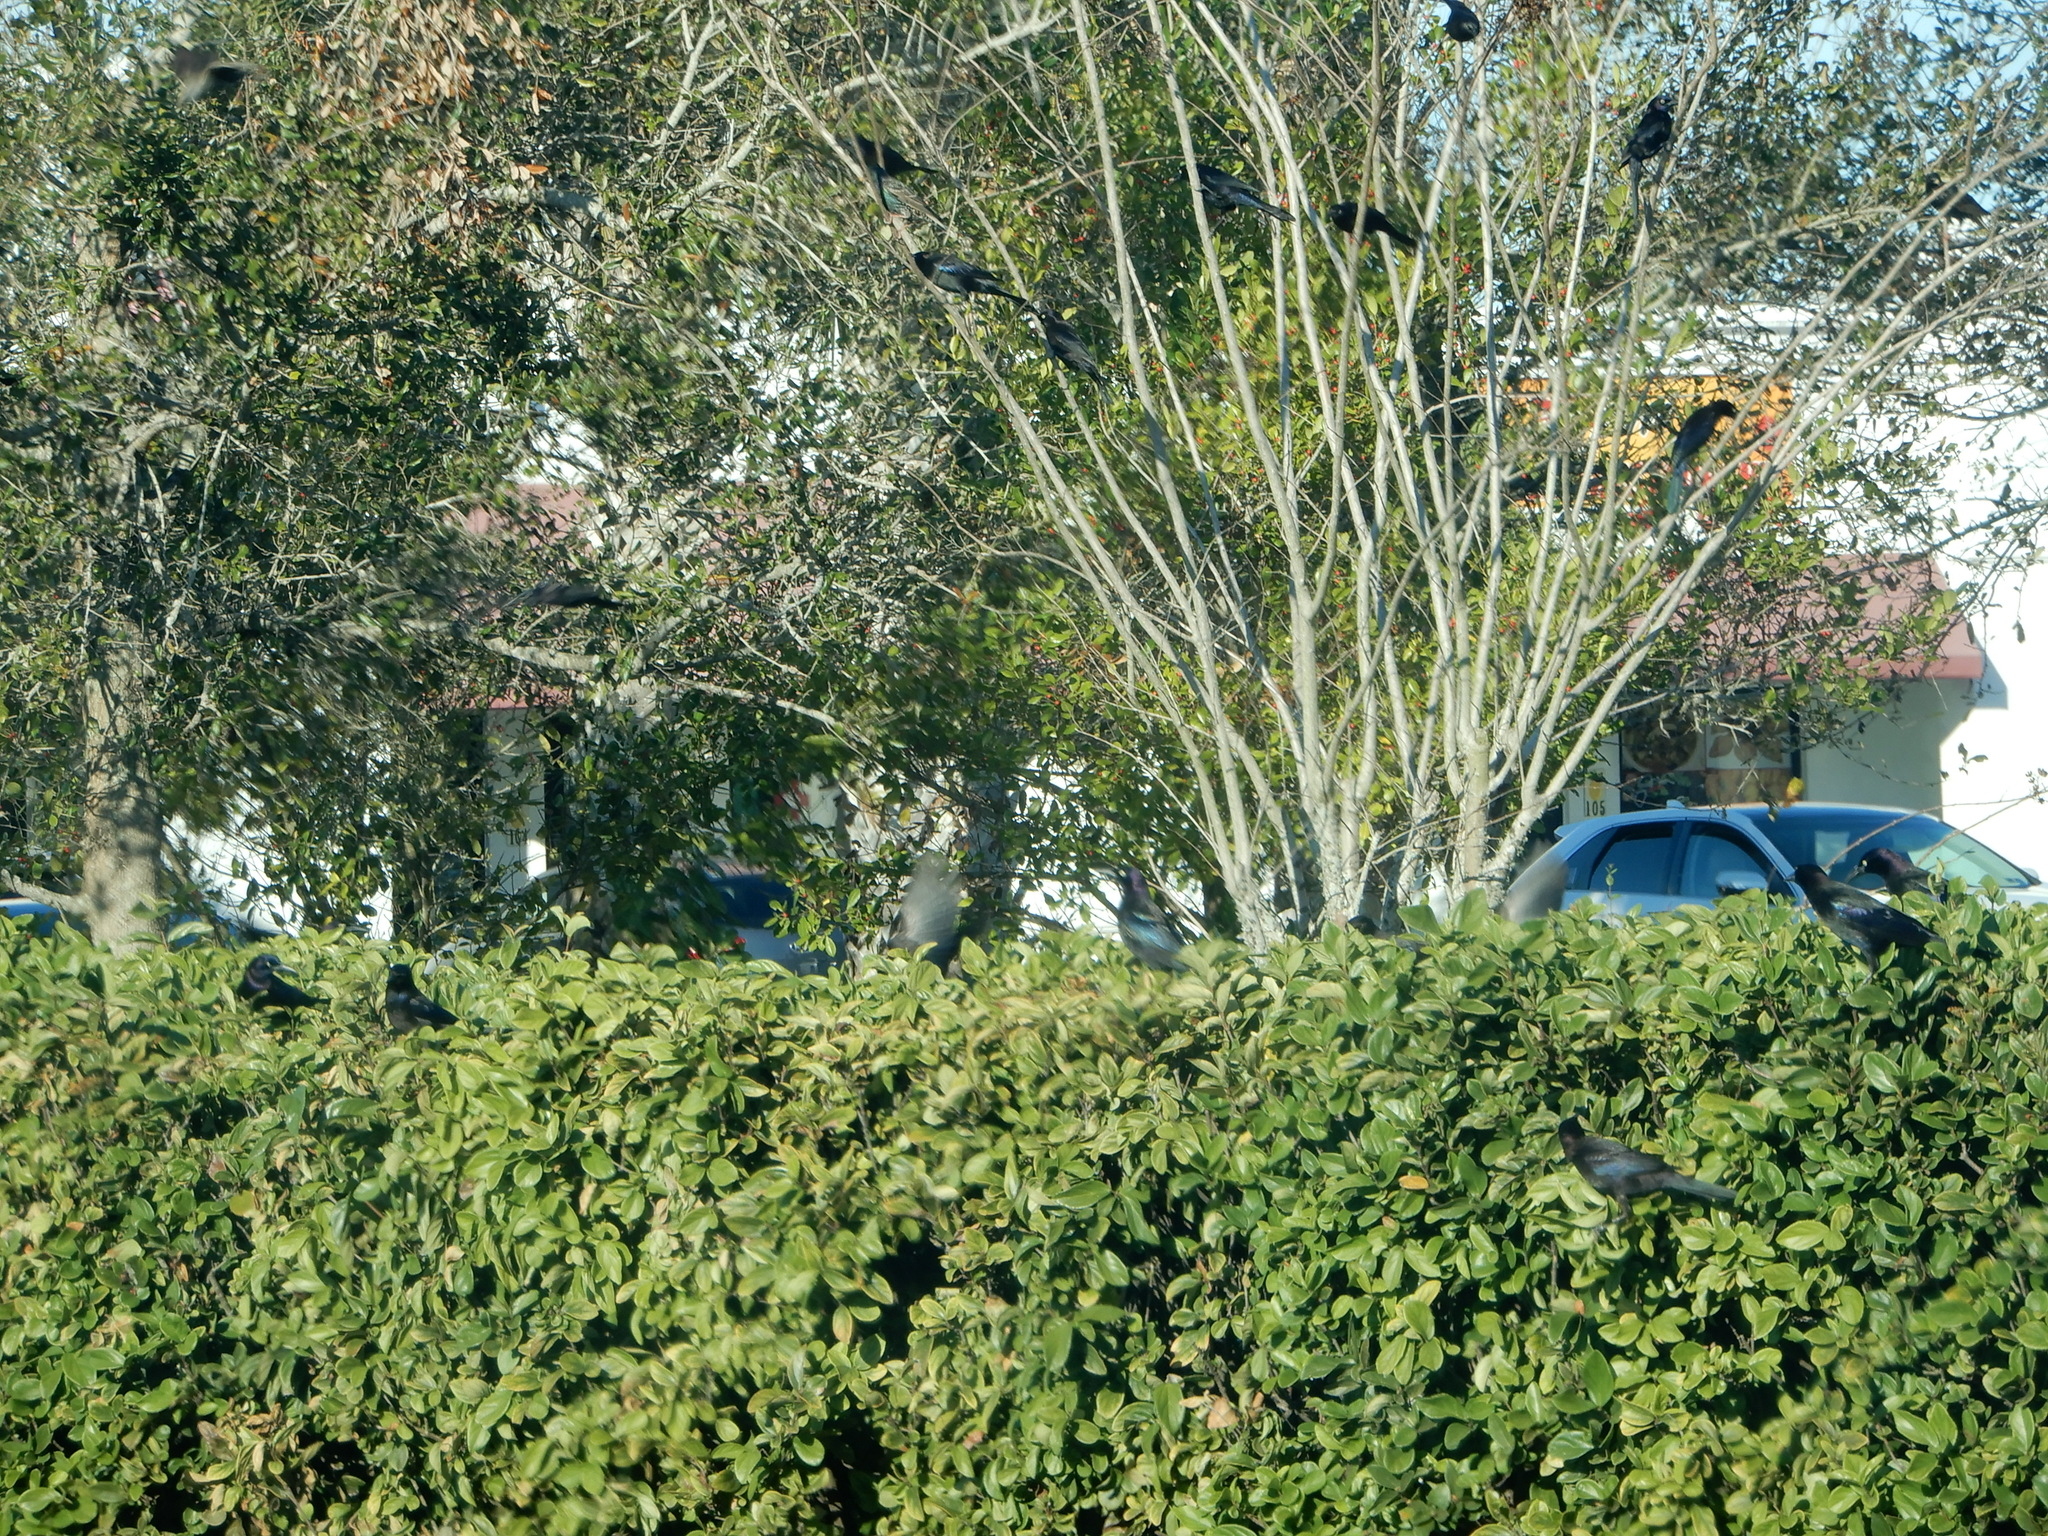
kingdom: Animalia
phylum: Chordata
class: Aves
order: Passeriformes
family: Icteridae
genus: Quiscalus
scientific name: Quiscalus quiscula
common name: Common grackle
